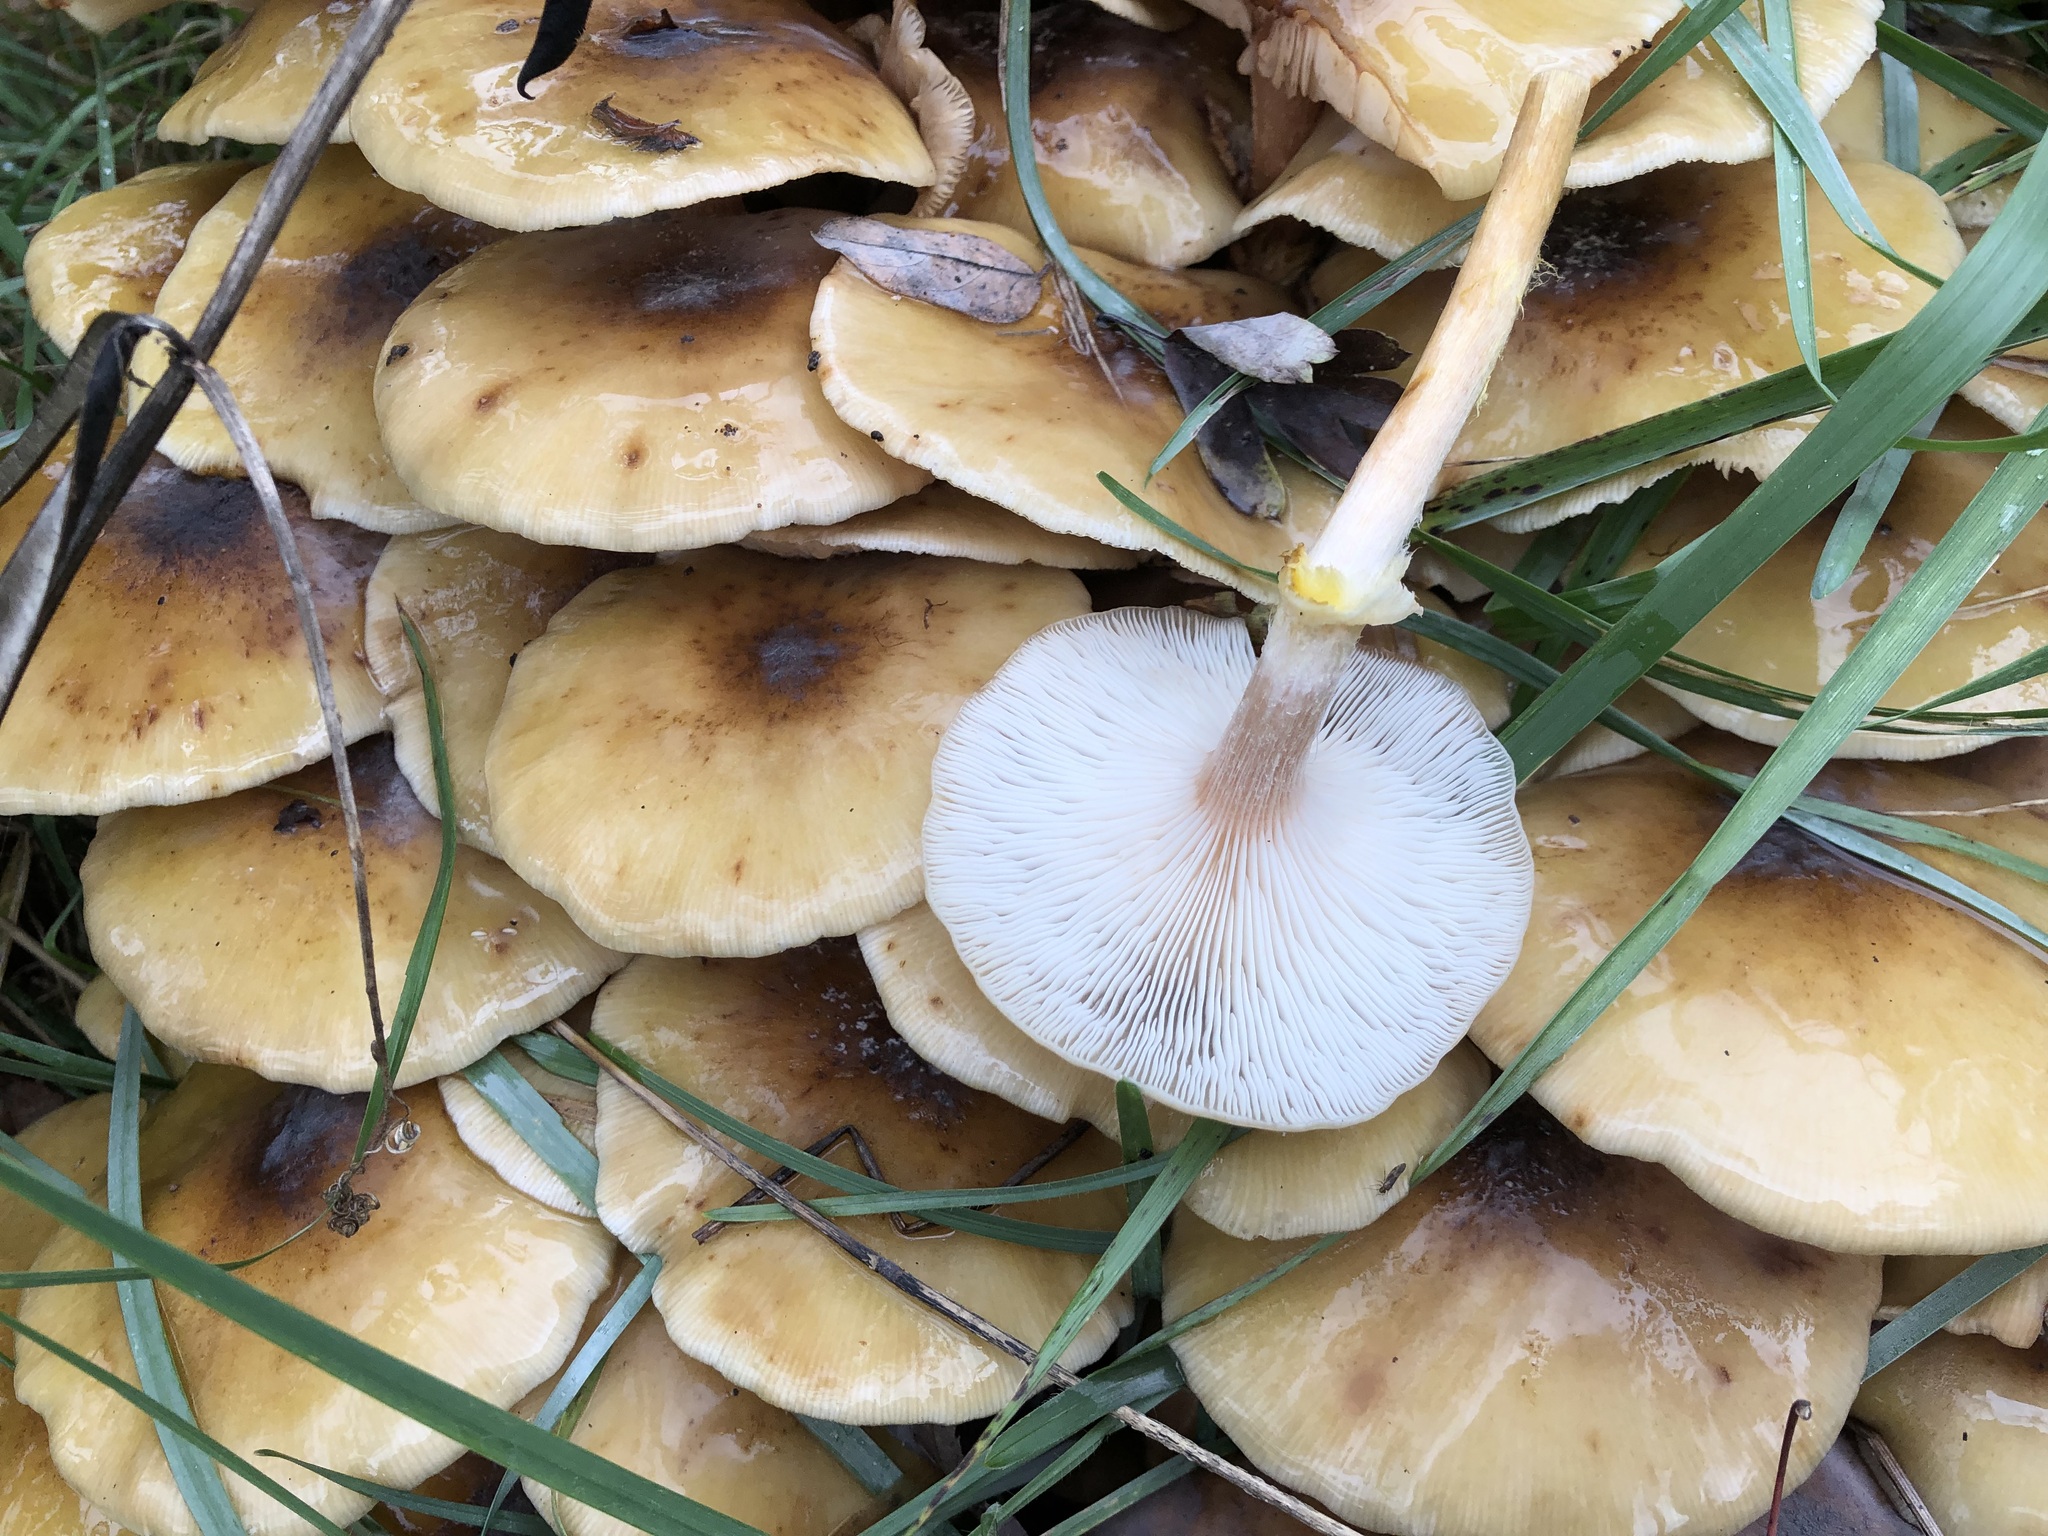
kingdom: Fungi
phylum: Basidiomycota
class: Agaricomycetes
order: Agaricales
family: Physalacriaceae
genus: Armillaria
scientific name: Armillaria mellea
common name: Honey fungus
